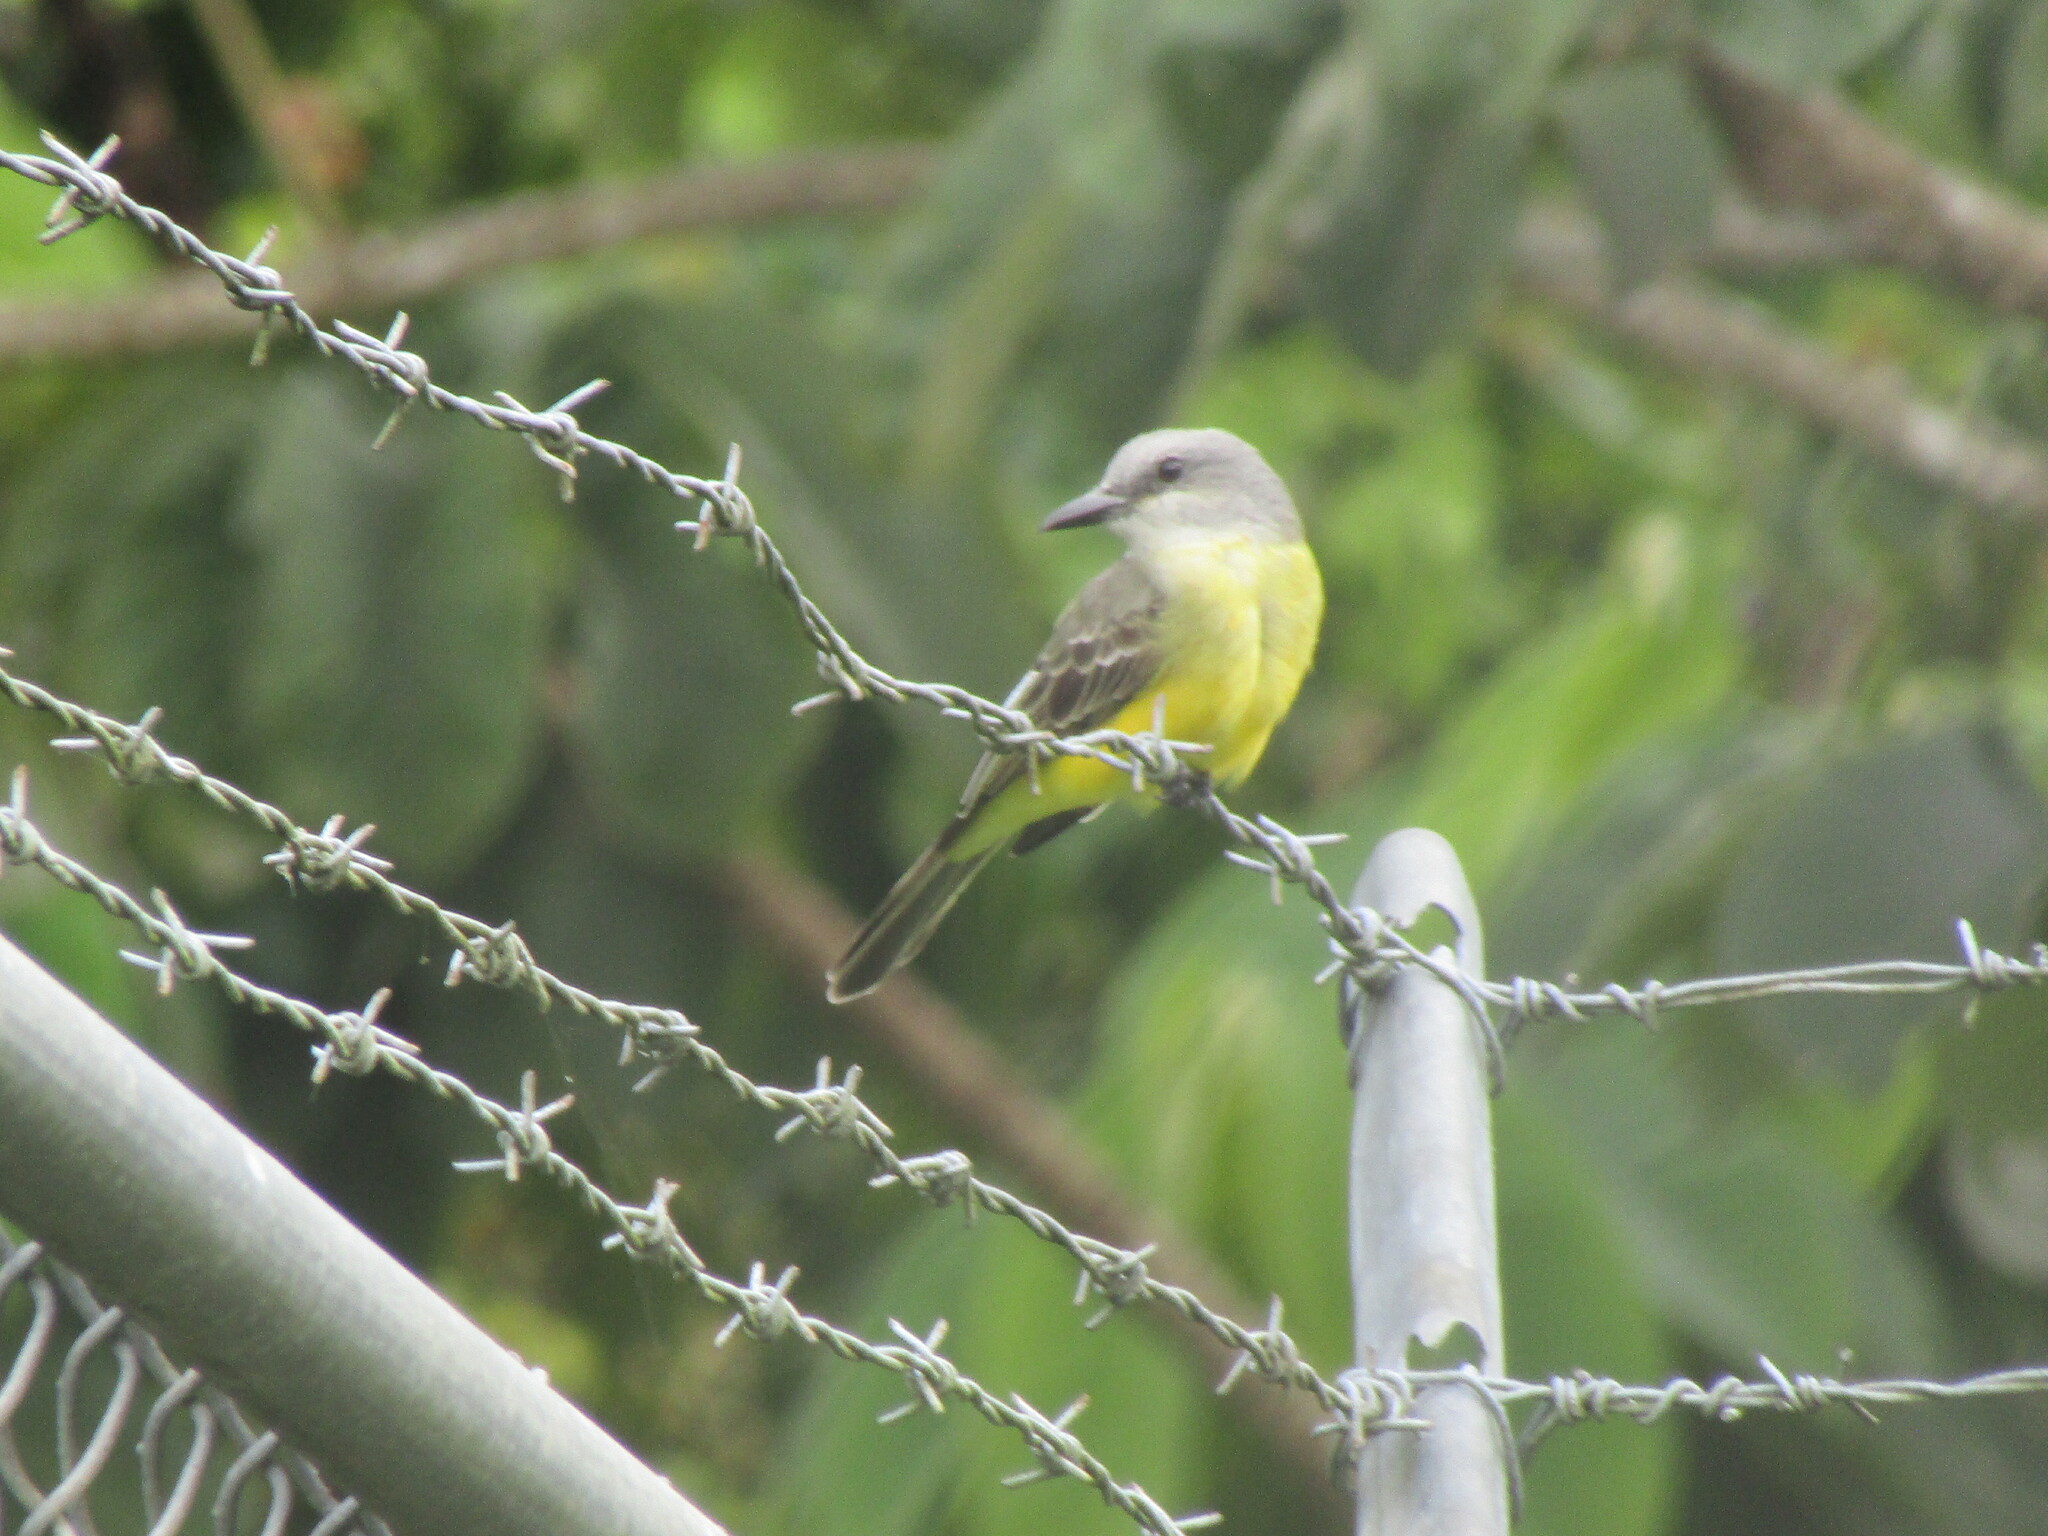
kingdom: Animalia
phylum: Chordata
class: Aves
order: Passeriformes
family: Tyrannidae
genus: Tyrannus
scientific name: Tyrannus melancholicus
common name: Tropical kingbird
